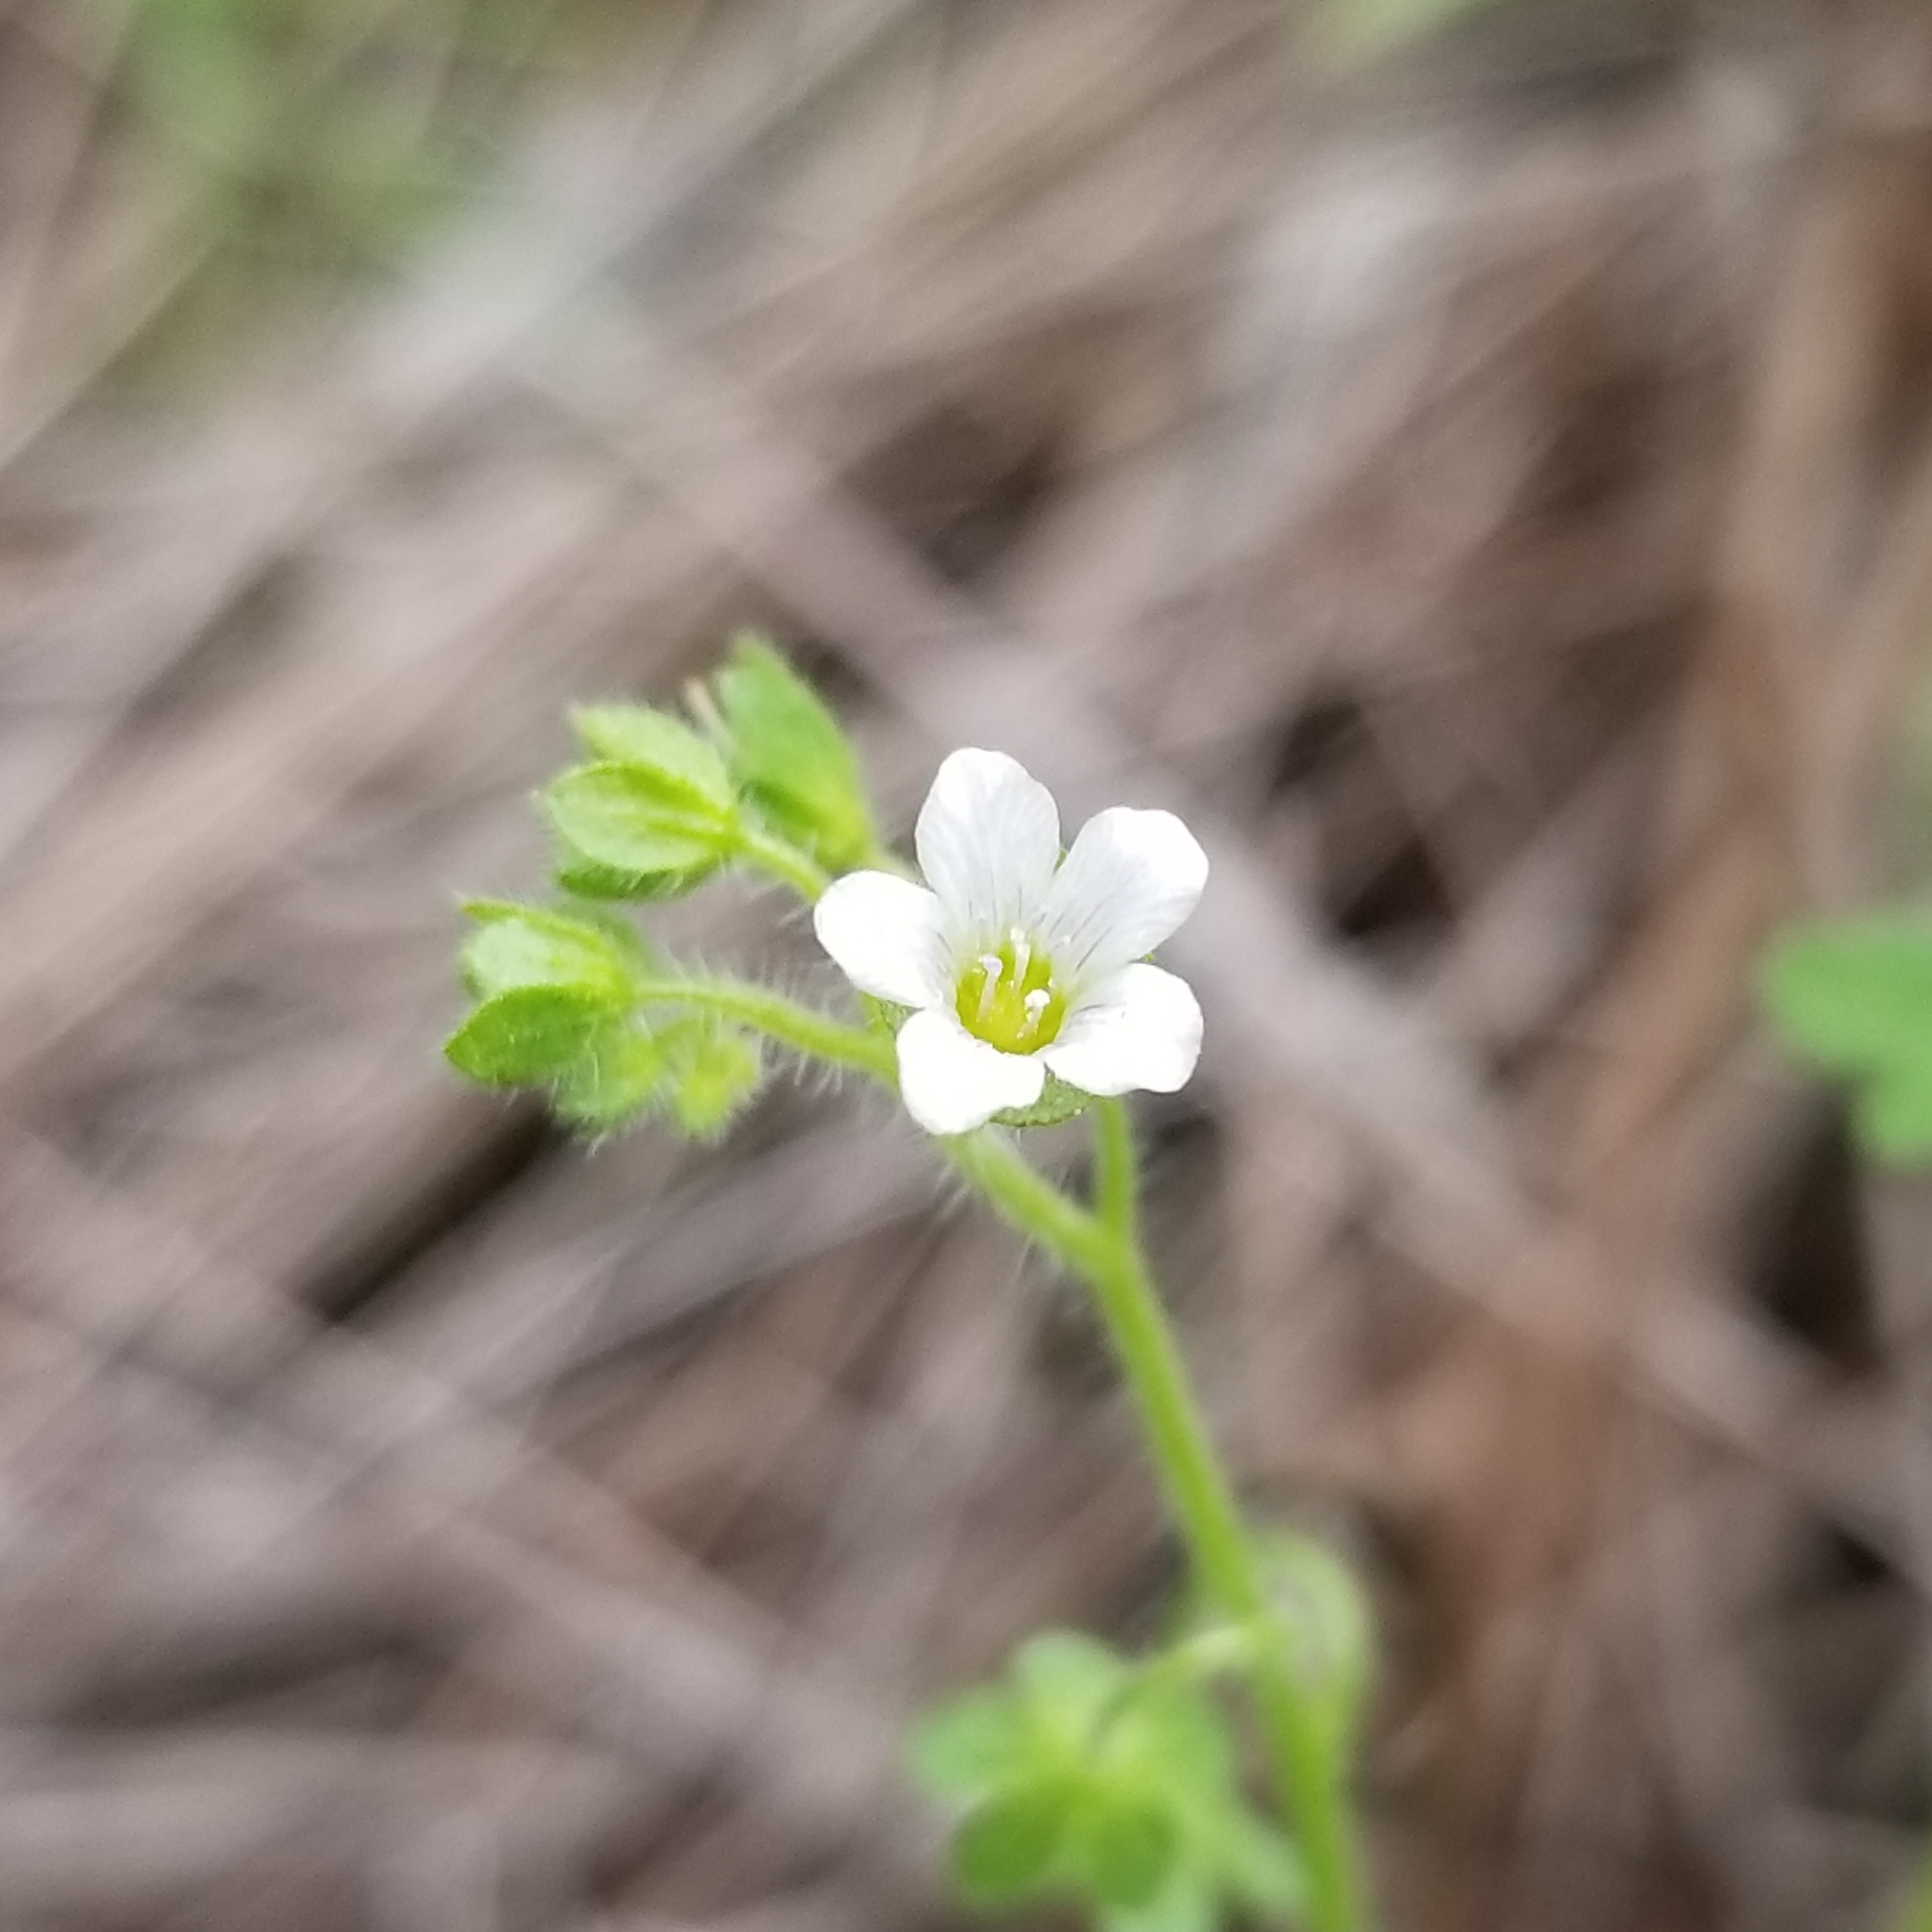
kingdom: Plantae
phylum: Tracheophyta
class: Magnoliopsida
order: Boraginales
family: Hydrophyllaceae
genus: Eucrypta
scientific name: Eucrypta chrysanthemifolia
